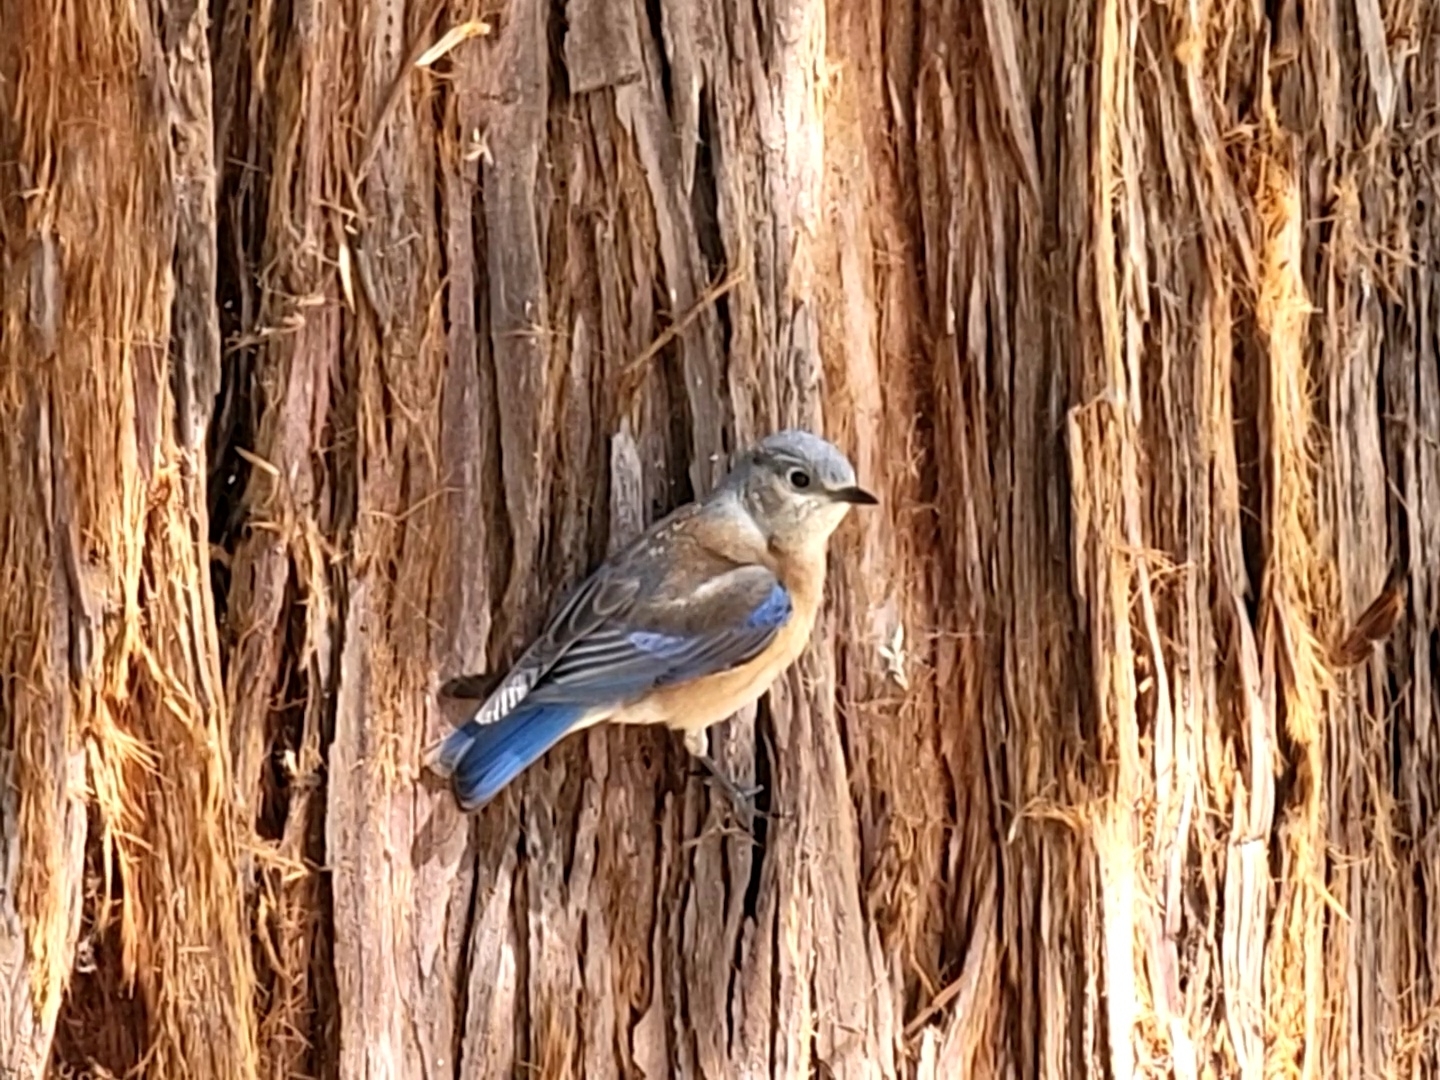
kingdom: Animalia
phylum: Chordata
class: Aves
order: Passeriformes
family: Turdidae
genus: Sialia
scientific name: Sialia mexicana
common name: Western bluebird
